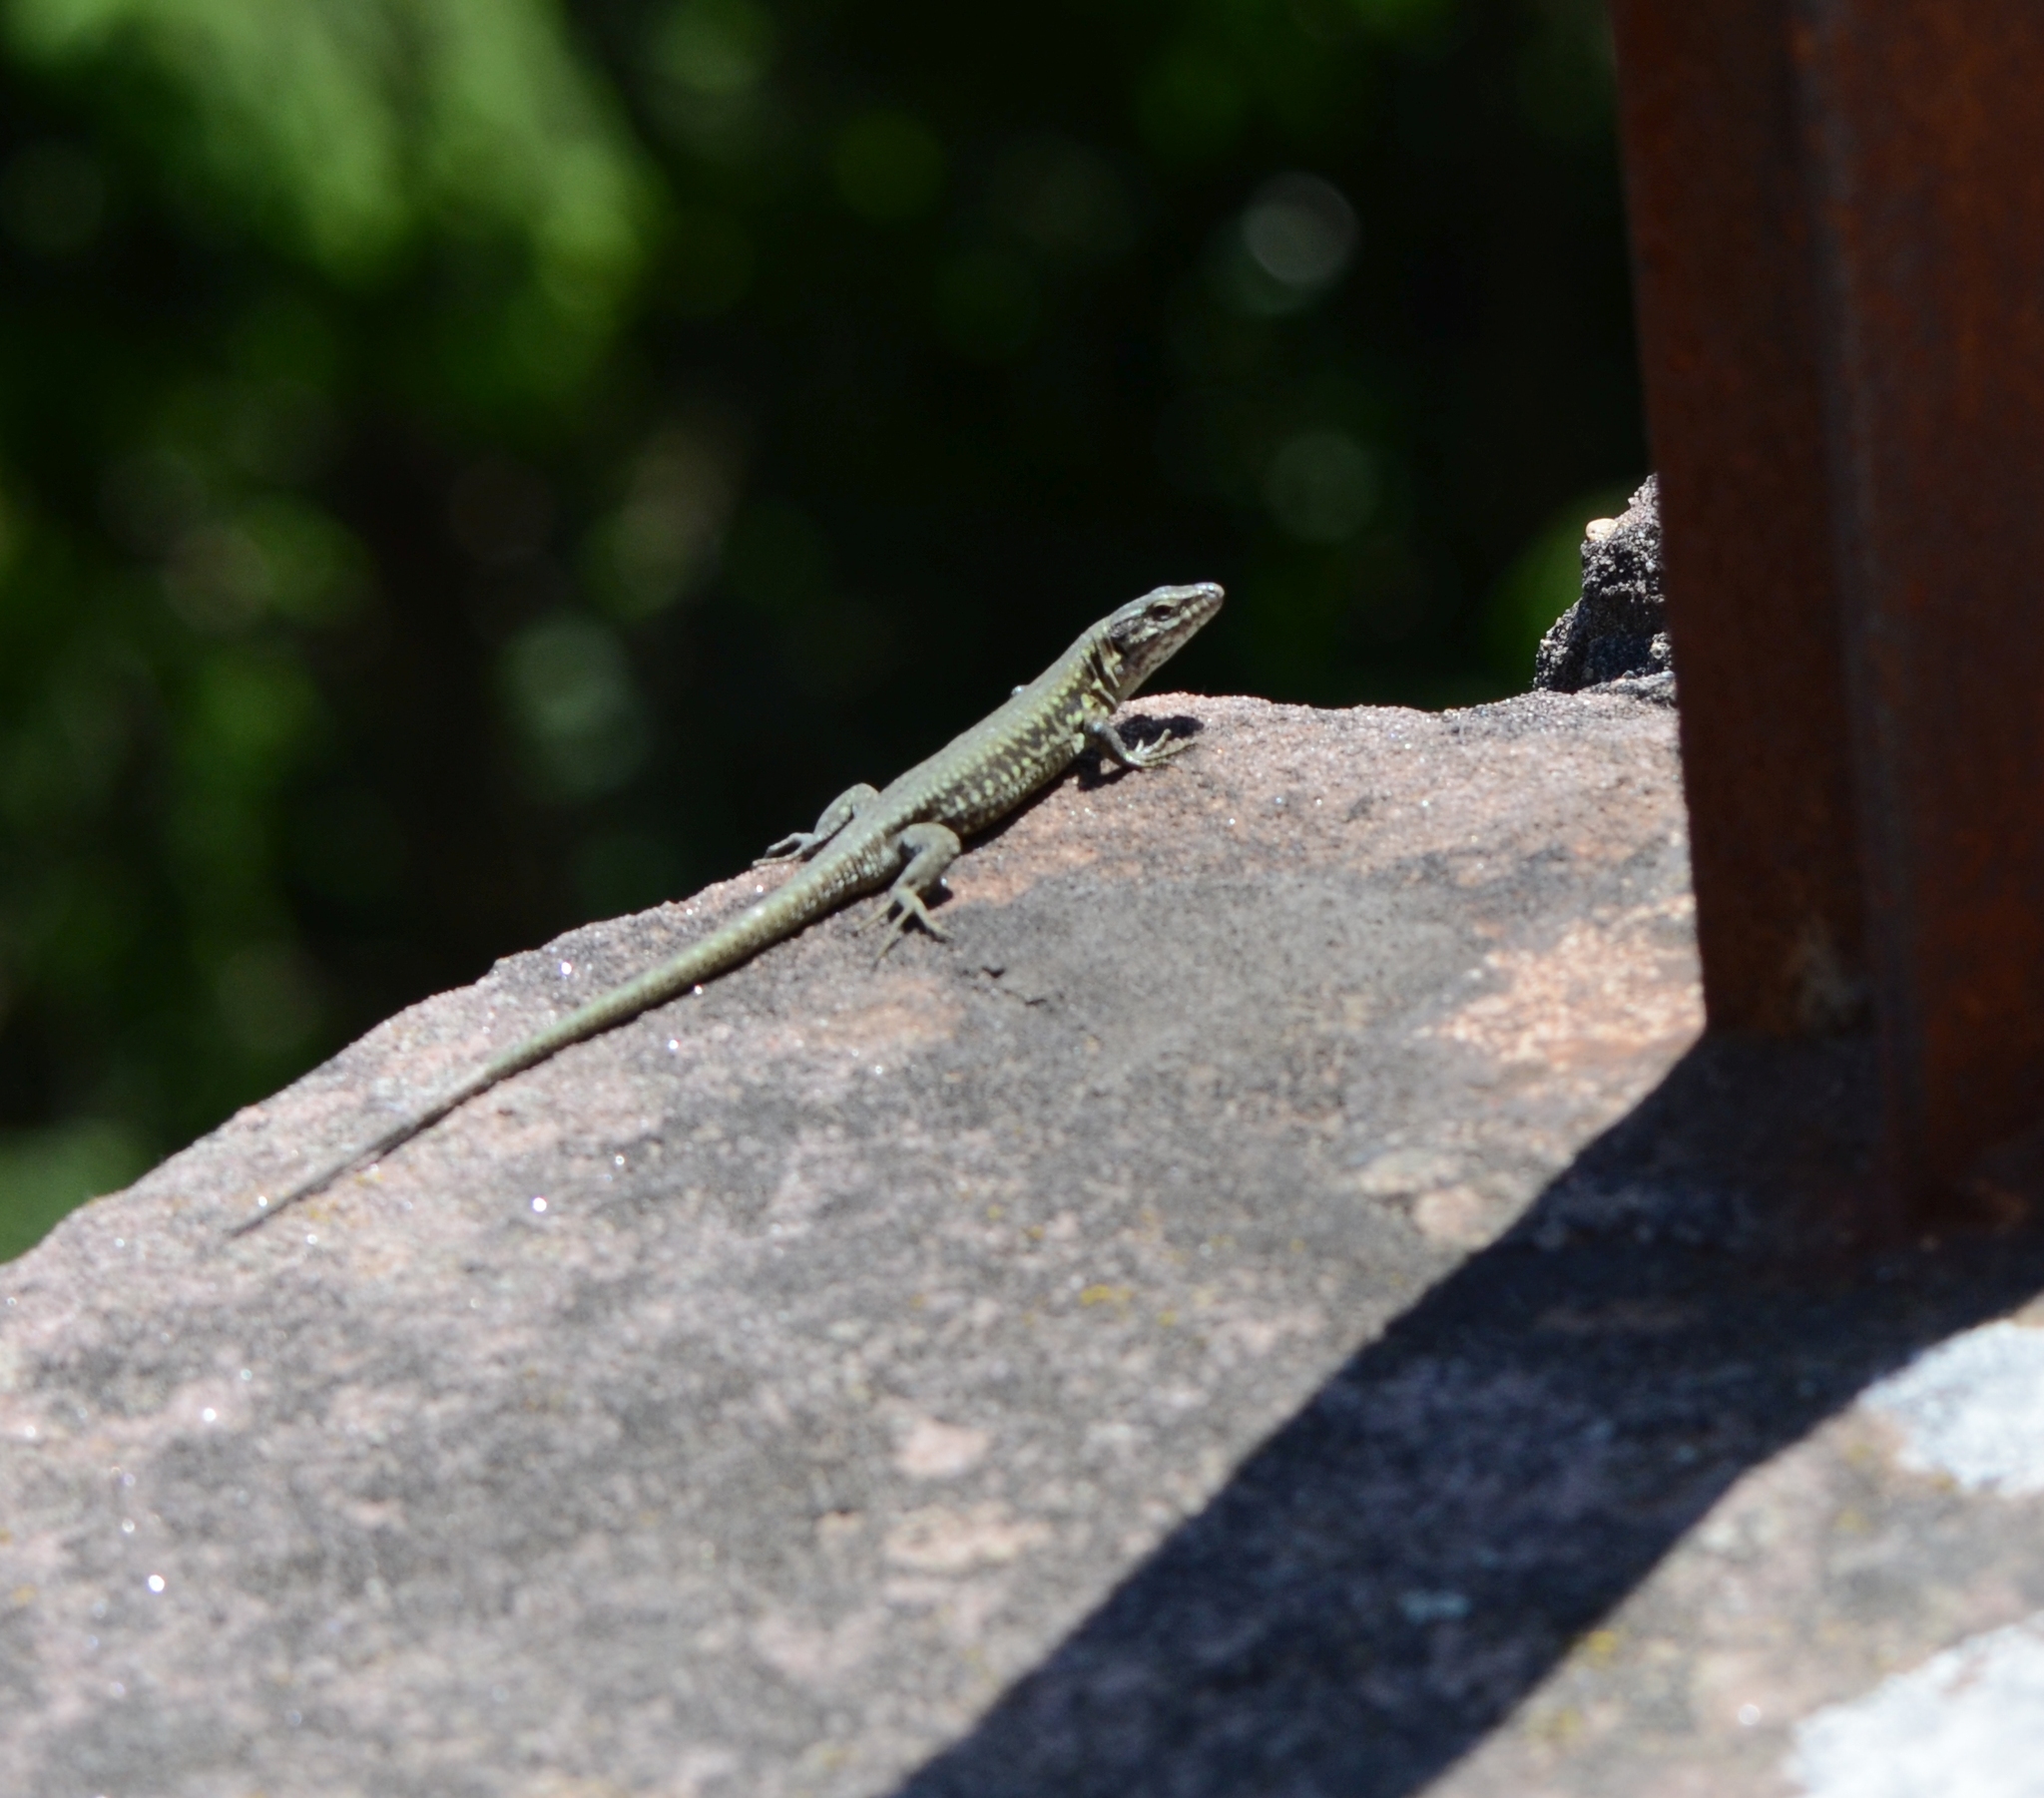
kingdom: Animalia
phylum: Chordata
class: Squamata
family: Lacertidae
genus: Podarcis
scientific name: Podarcis muralis
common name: Common wall lizard
